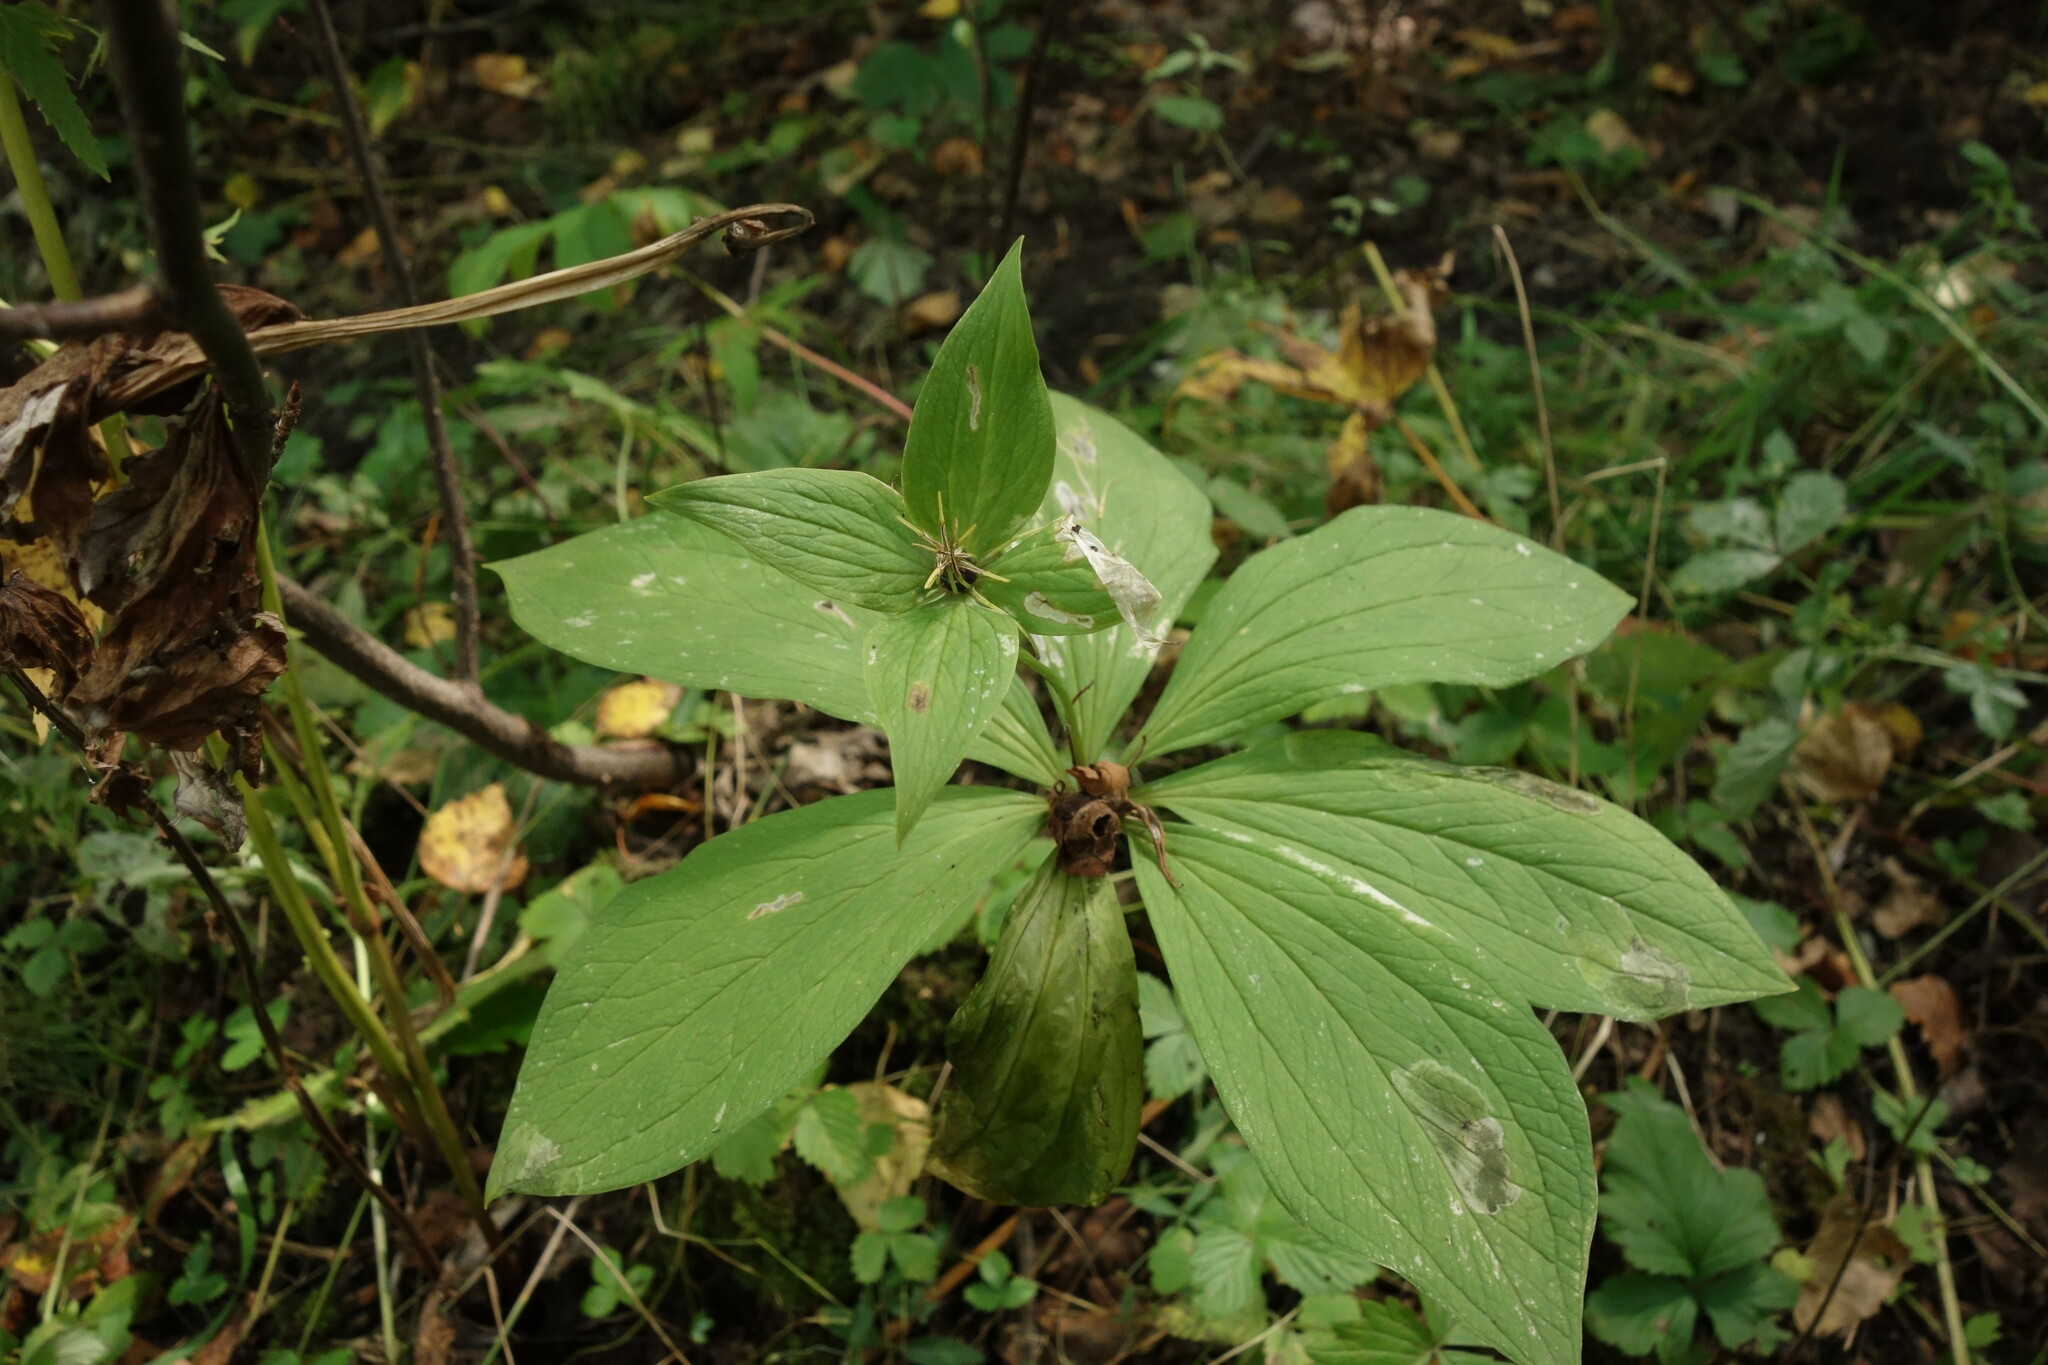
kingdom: Plantae
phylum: Tracheophyta
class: Liliopsida
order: Liliales
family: Melanthiaceae
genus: Paris
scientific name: Paris verticillata
